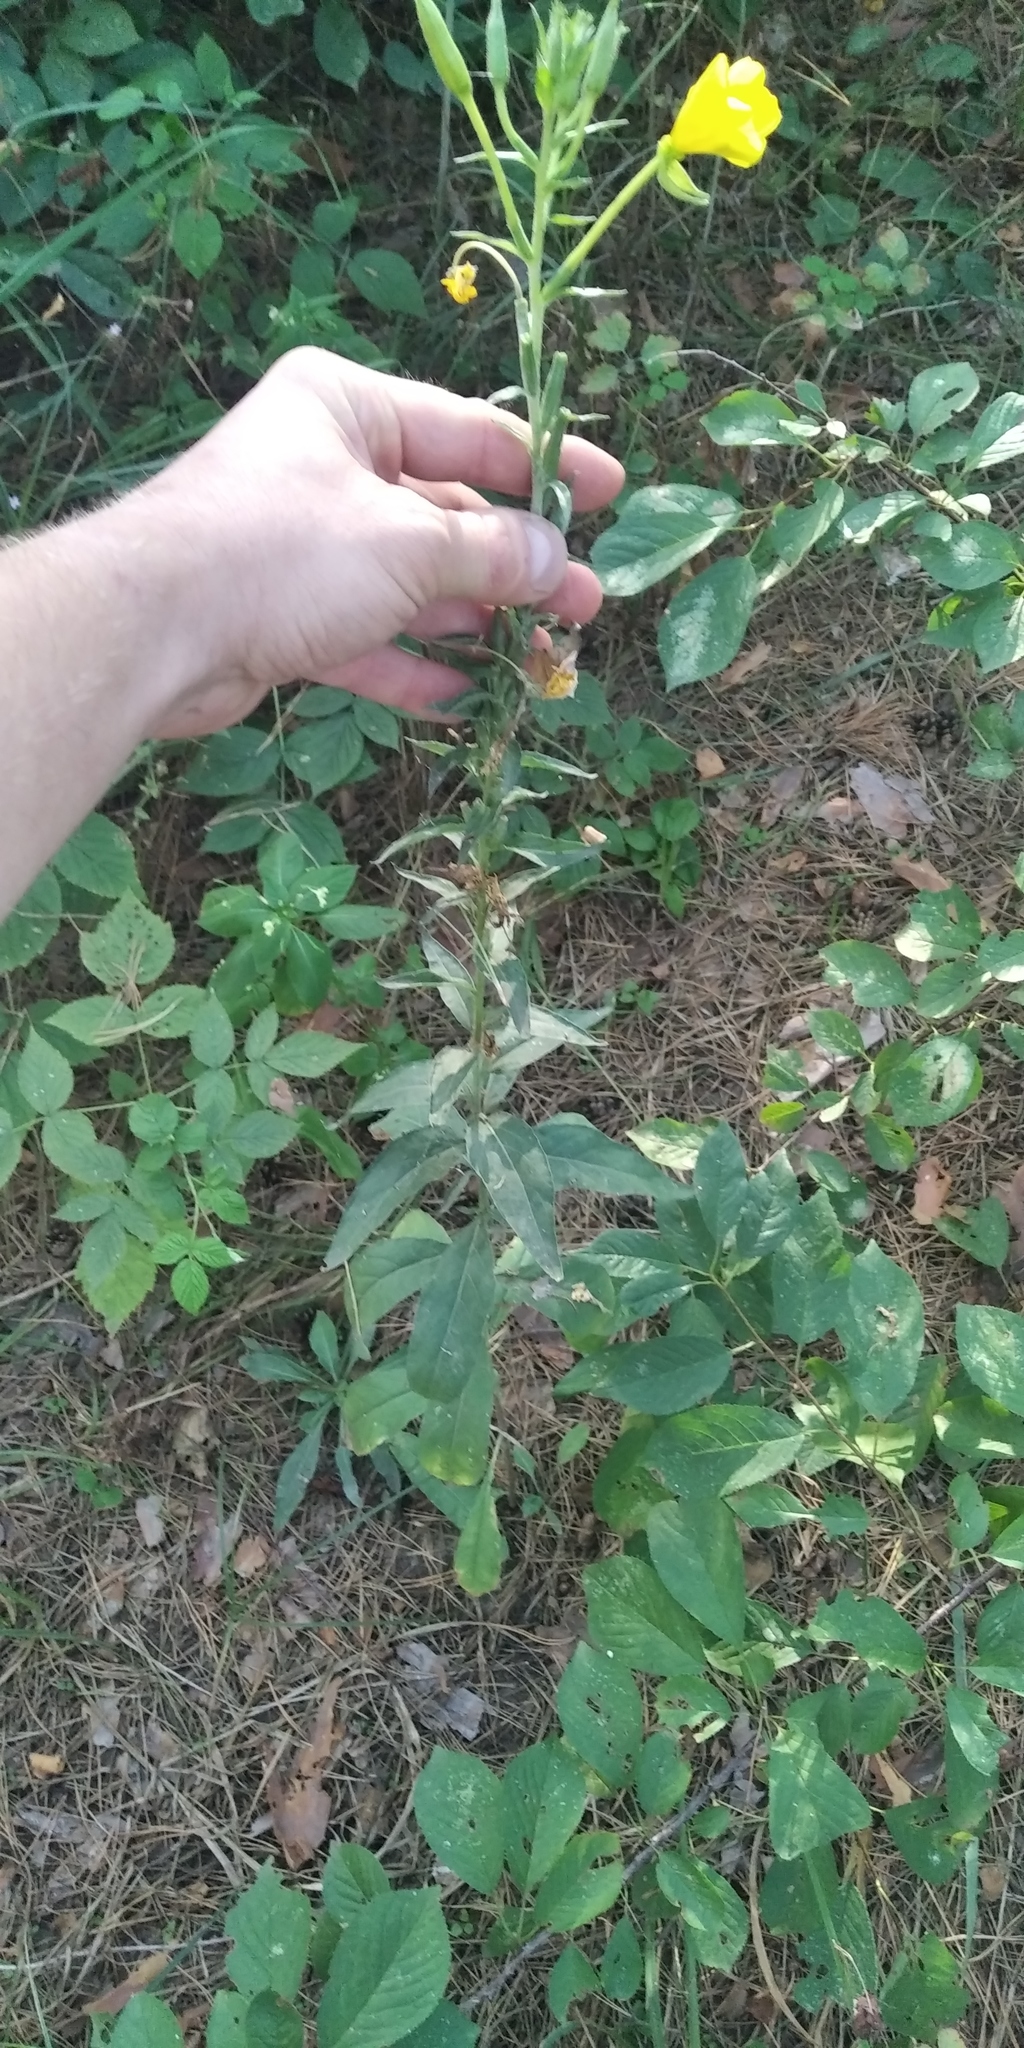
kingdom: Plantae
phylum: Tracheophyta
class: Magnoliopsida
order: Myrtales
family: Onagraceae
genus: Oenothera
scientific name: Oenothera biennis
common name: Common evening-primrose
